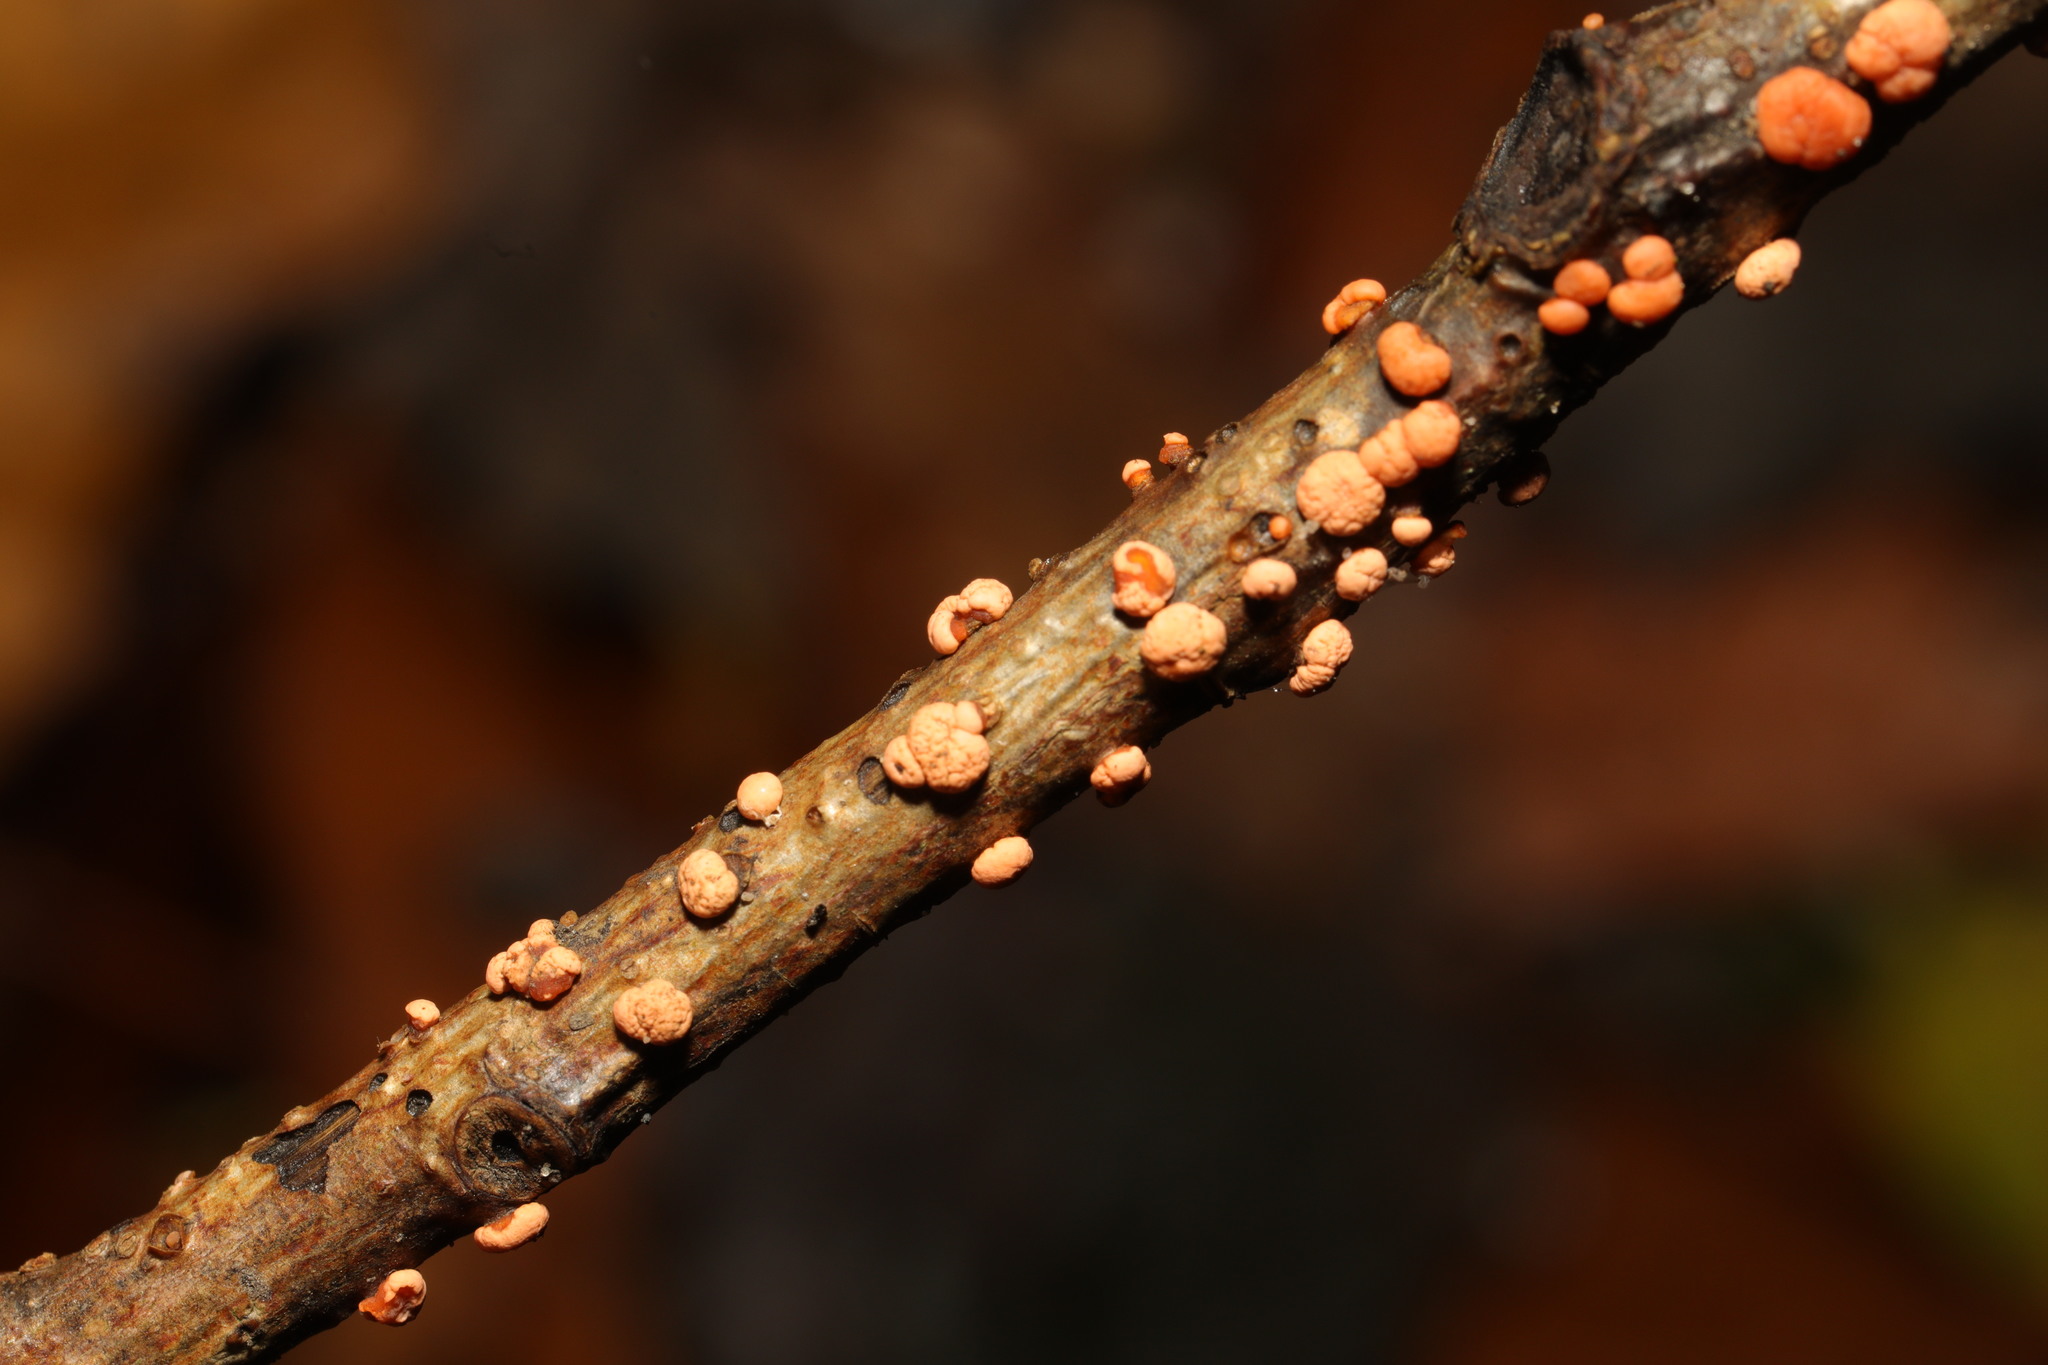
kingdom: Fungi
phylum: Ascomycota
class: Sordariomycetes
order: Hypocreales
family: Nectriaceae
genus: Nectria
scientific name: Nectria cinnabarina
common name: Coral spot
